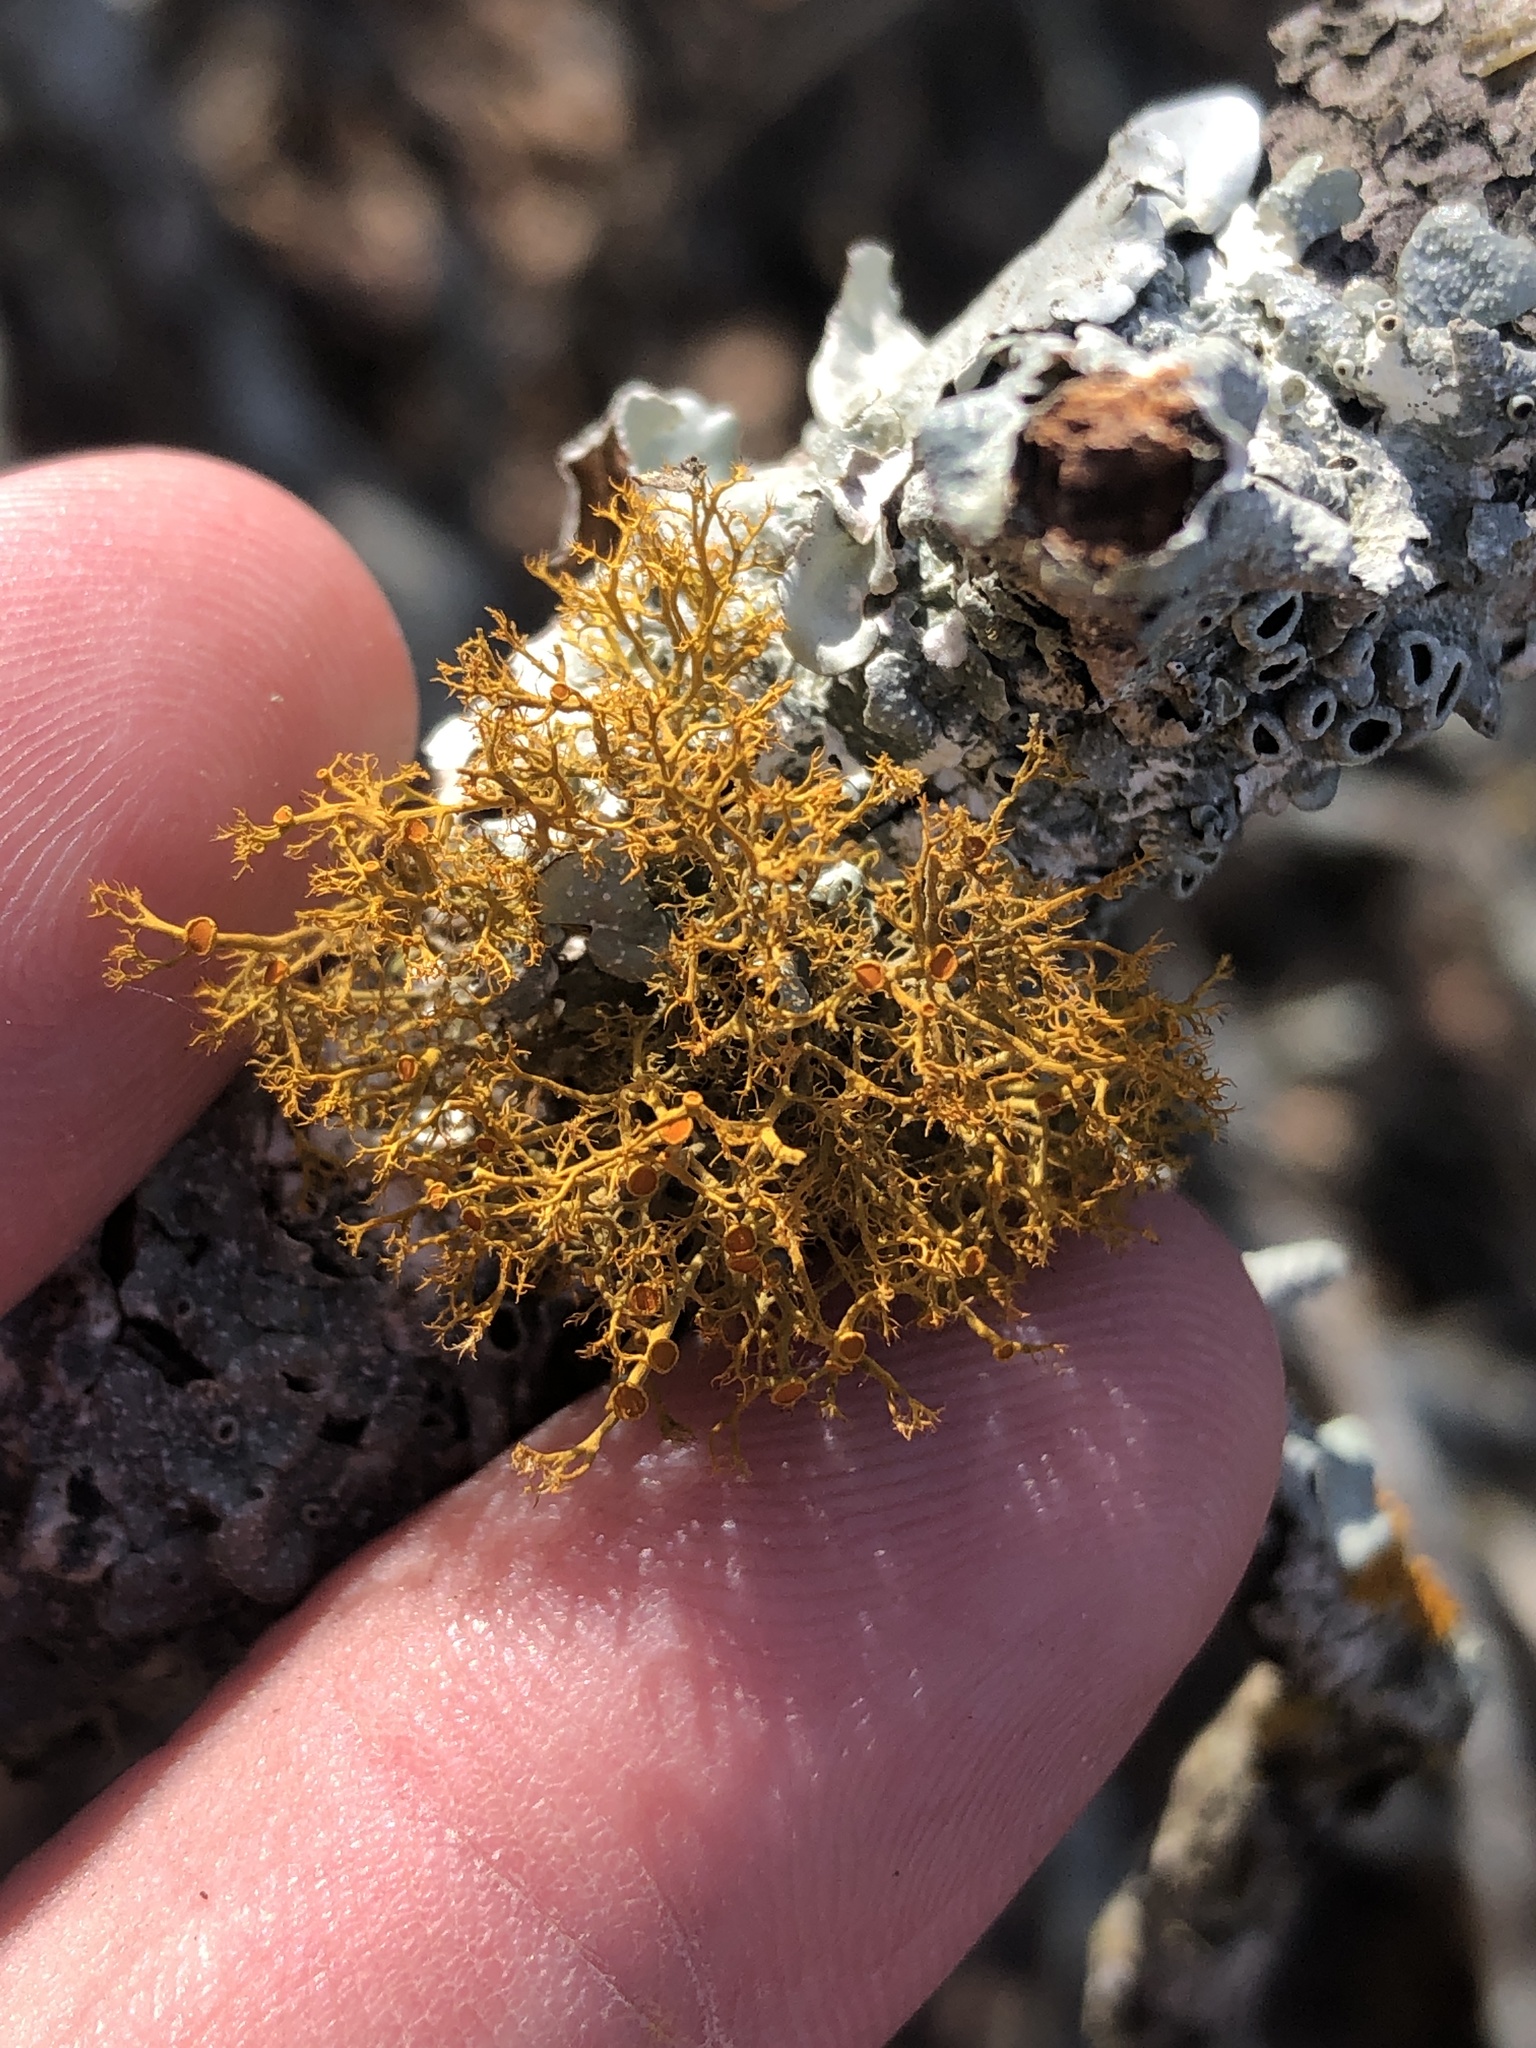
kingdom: Fungi
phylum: Ascomycota
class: Lecanoromycetes
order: Teloschistales
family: Teloschistaceae
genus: Teloschistes
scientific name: Teloschistes exilis
